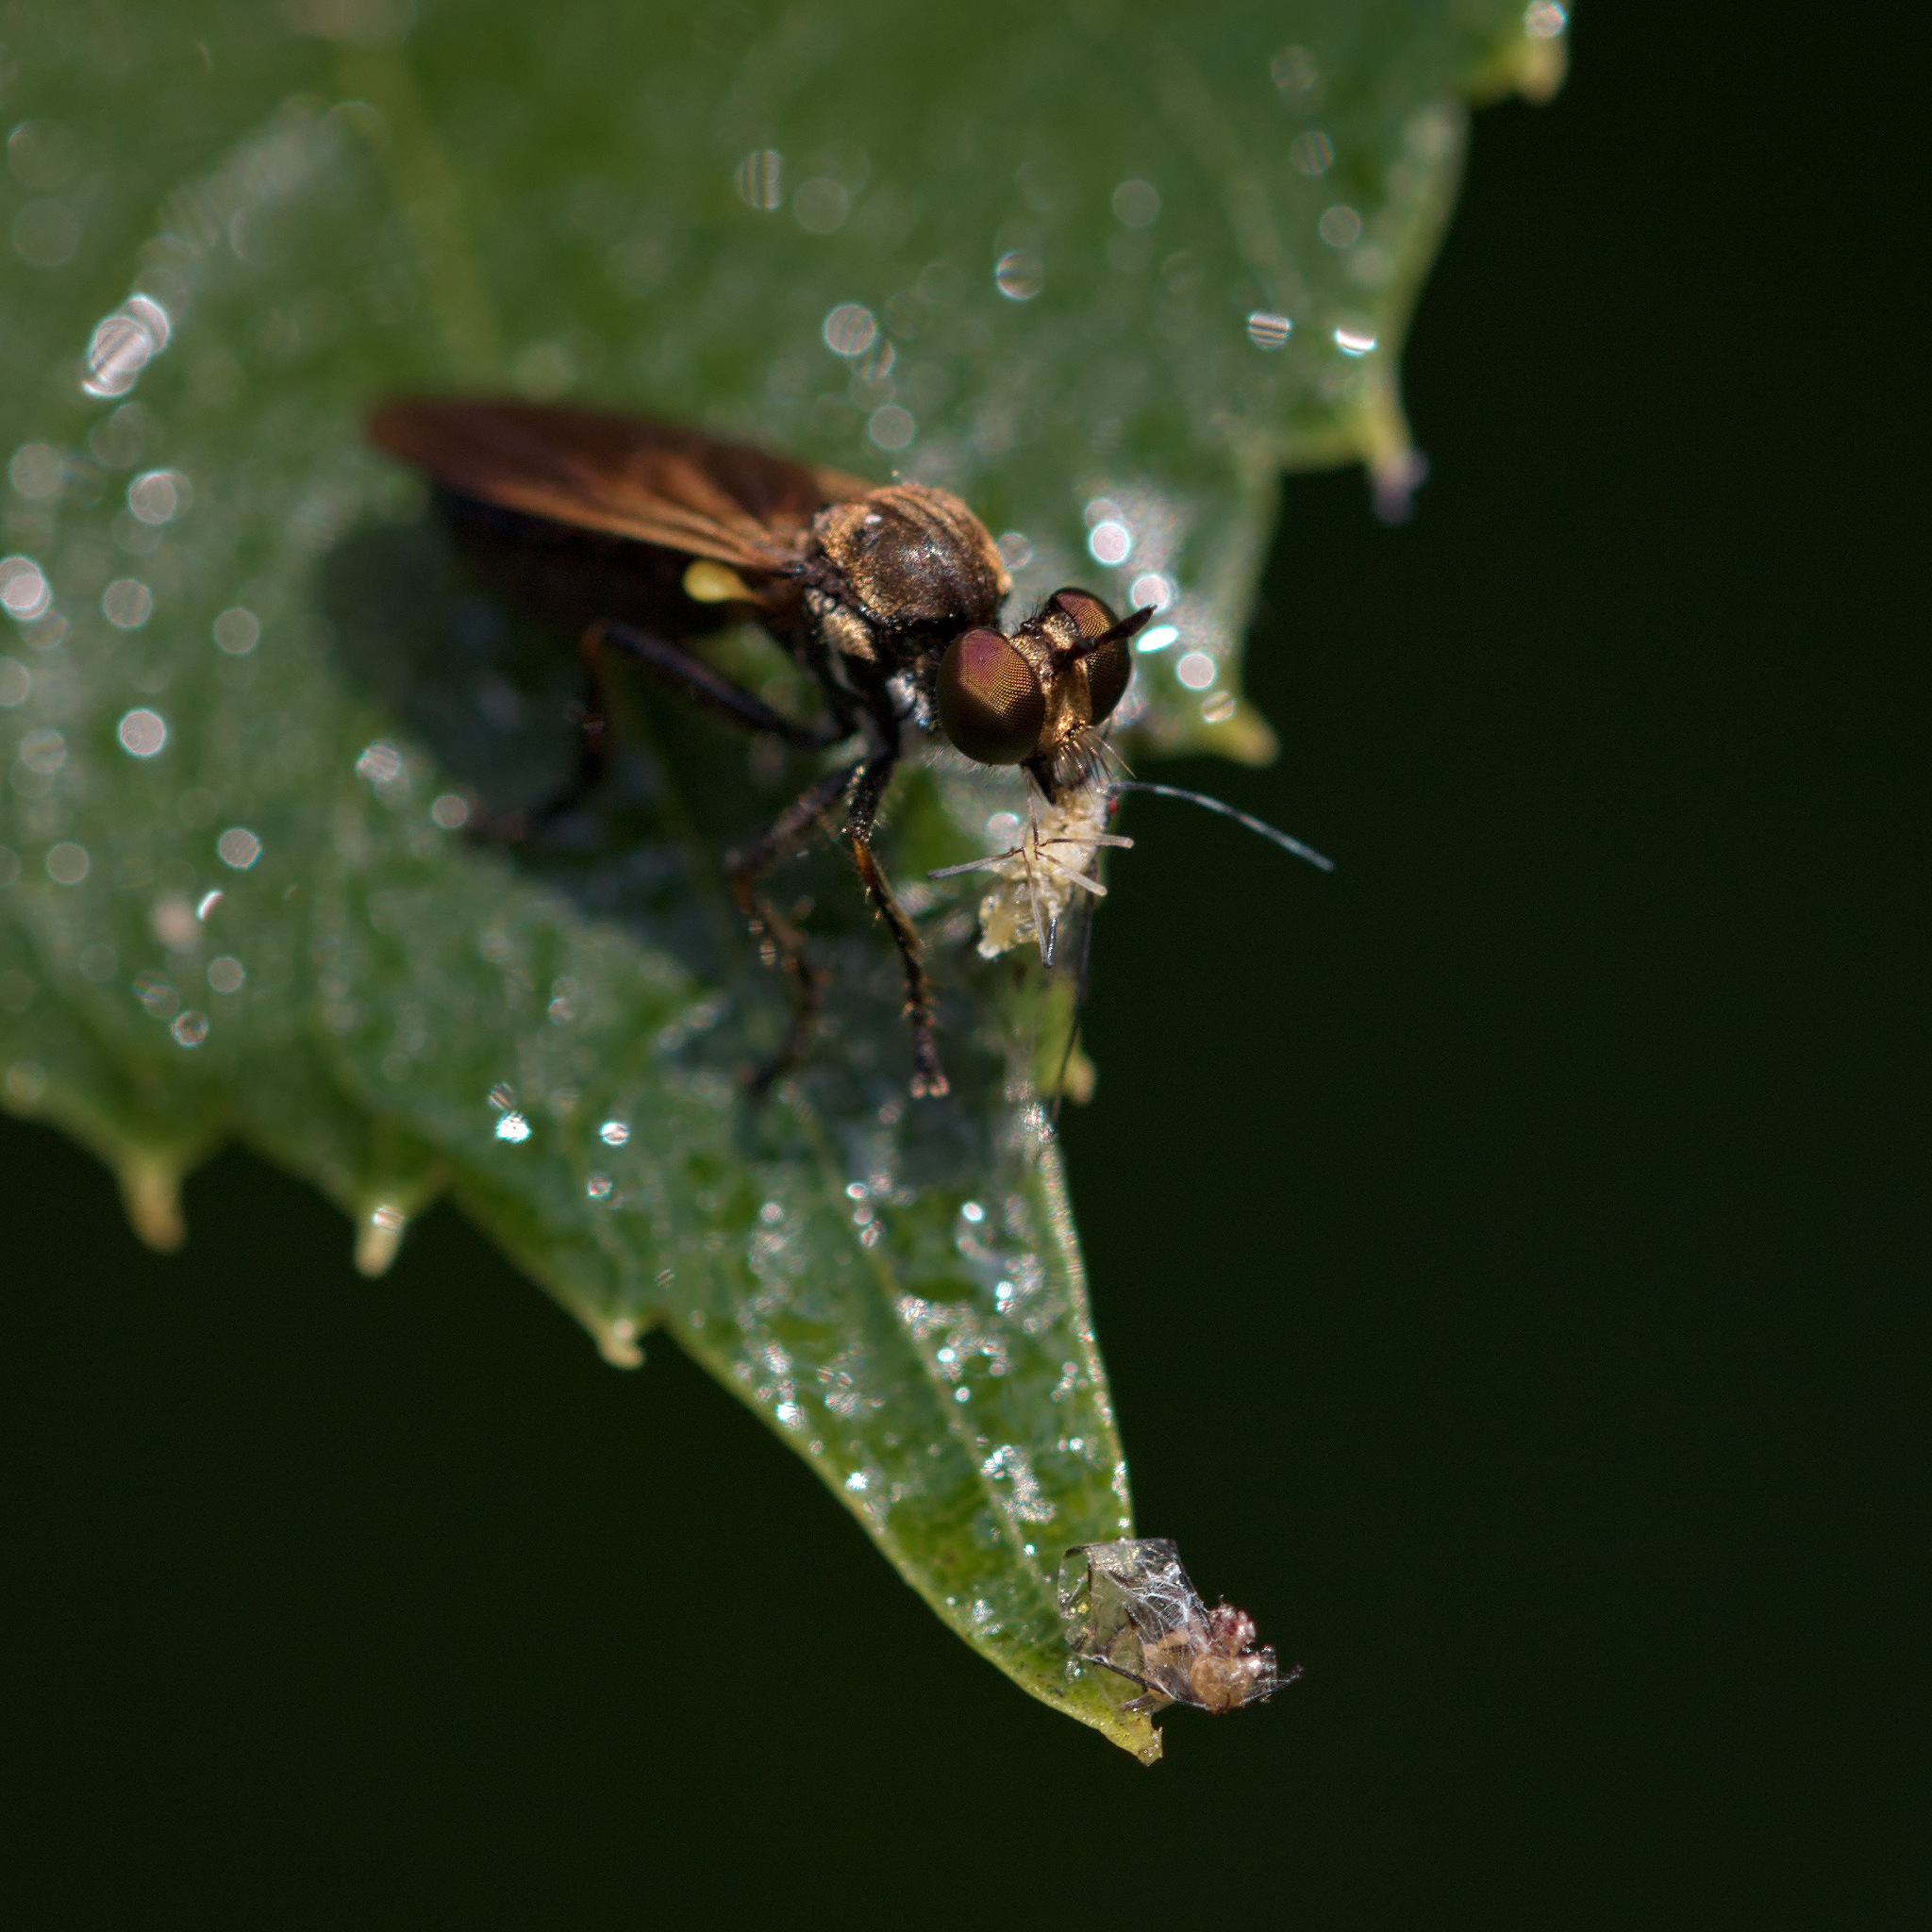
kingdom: Animalia
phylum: Arthropoda
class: Insecta
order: Diptera
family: Asilidae
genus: Eudioctria
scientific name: Eudioctria sackeni
